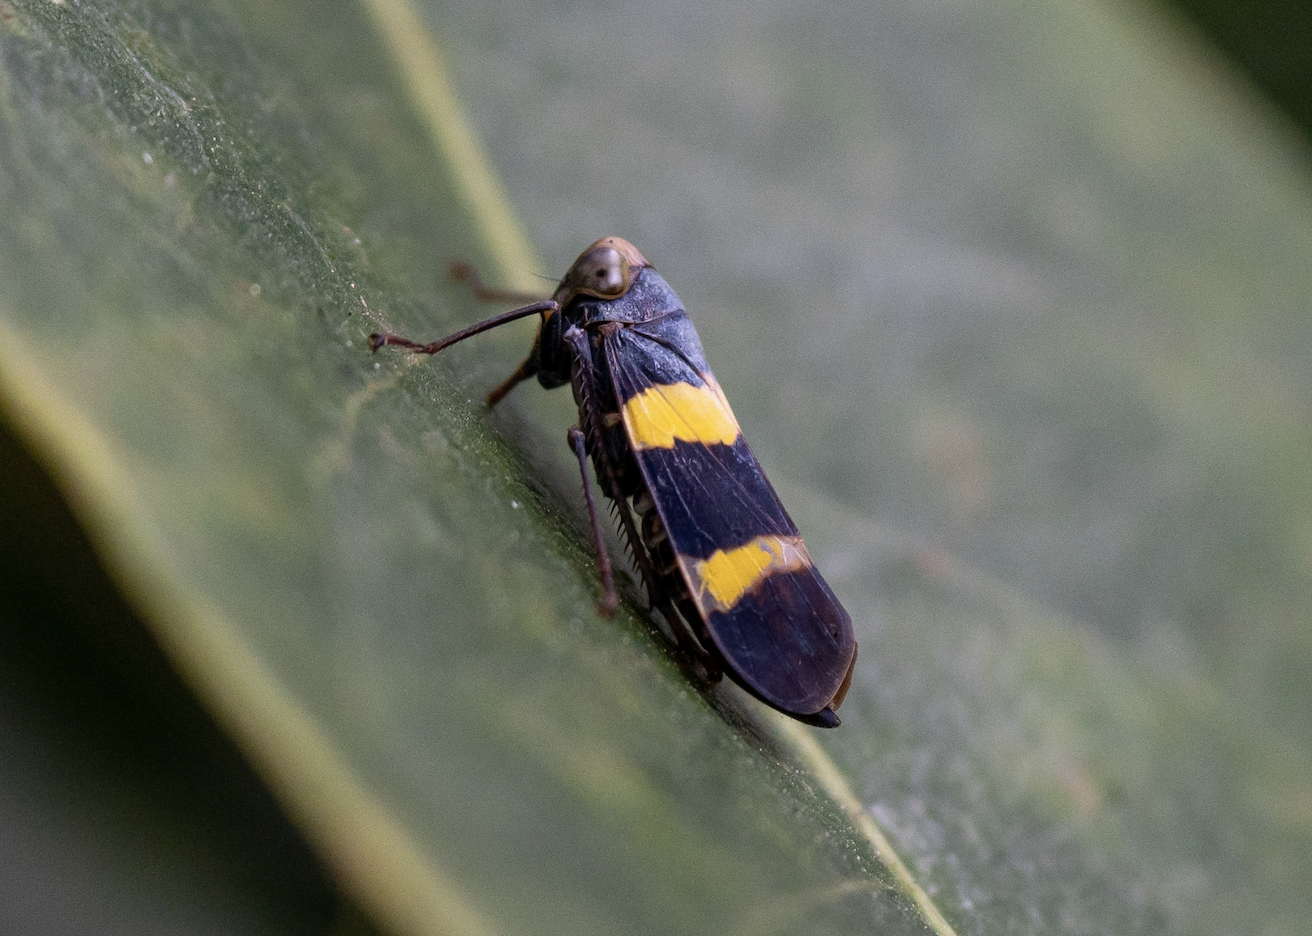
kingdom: Animalia
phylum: Arthropoda
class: Insecta
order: Hemiptera
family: Cicadellidae
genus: Olidiana
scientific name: Olidiana brevis
